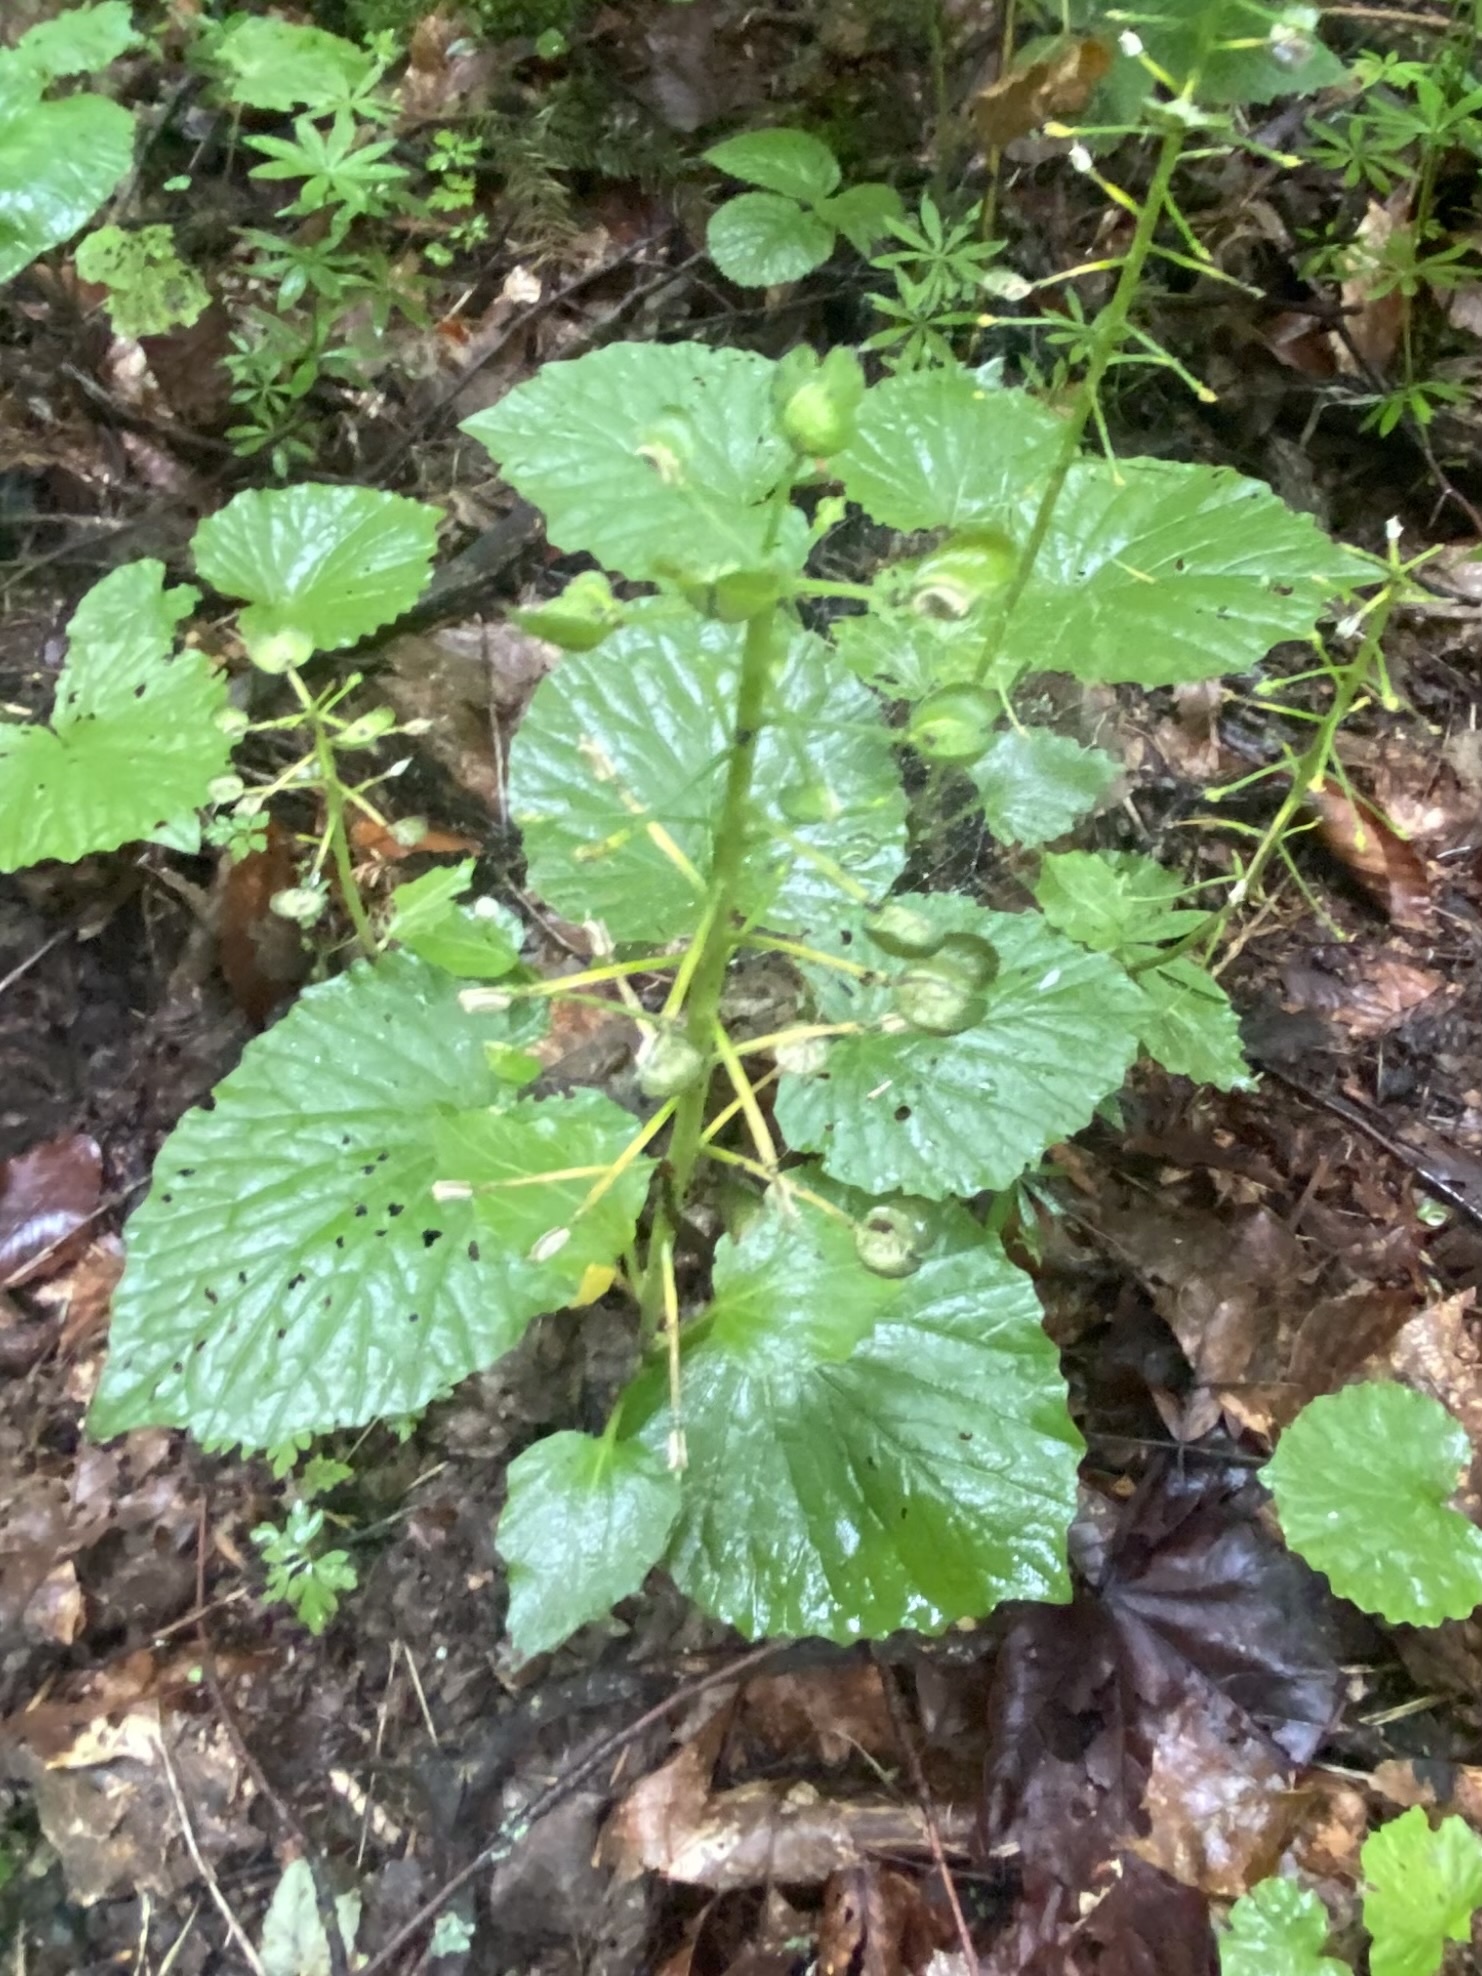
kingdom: Plantae
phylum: Tracheophyta
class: Magnoliopsida
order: Brassicales
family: Brassicaceae
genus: Pachyphragma
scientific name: Pachyphragma macrophyllum
